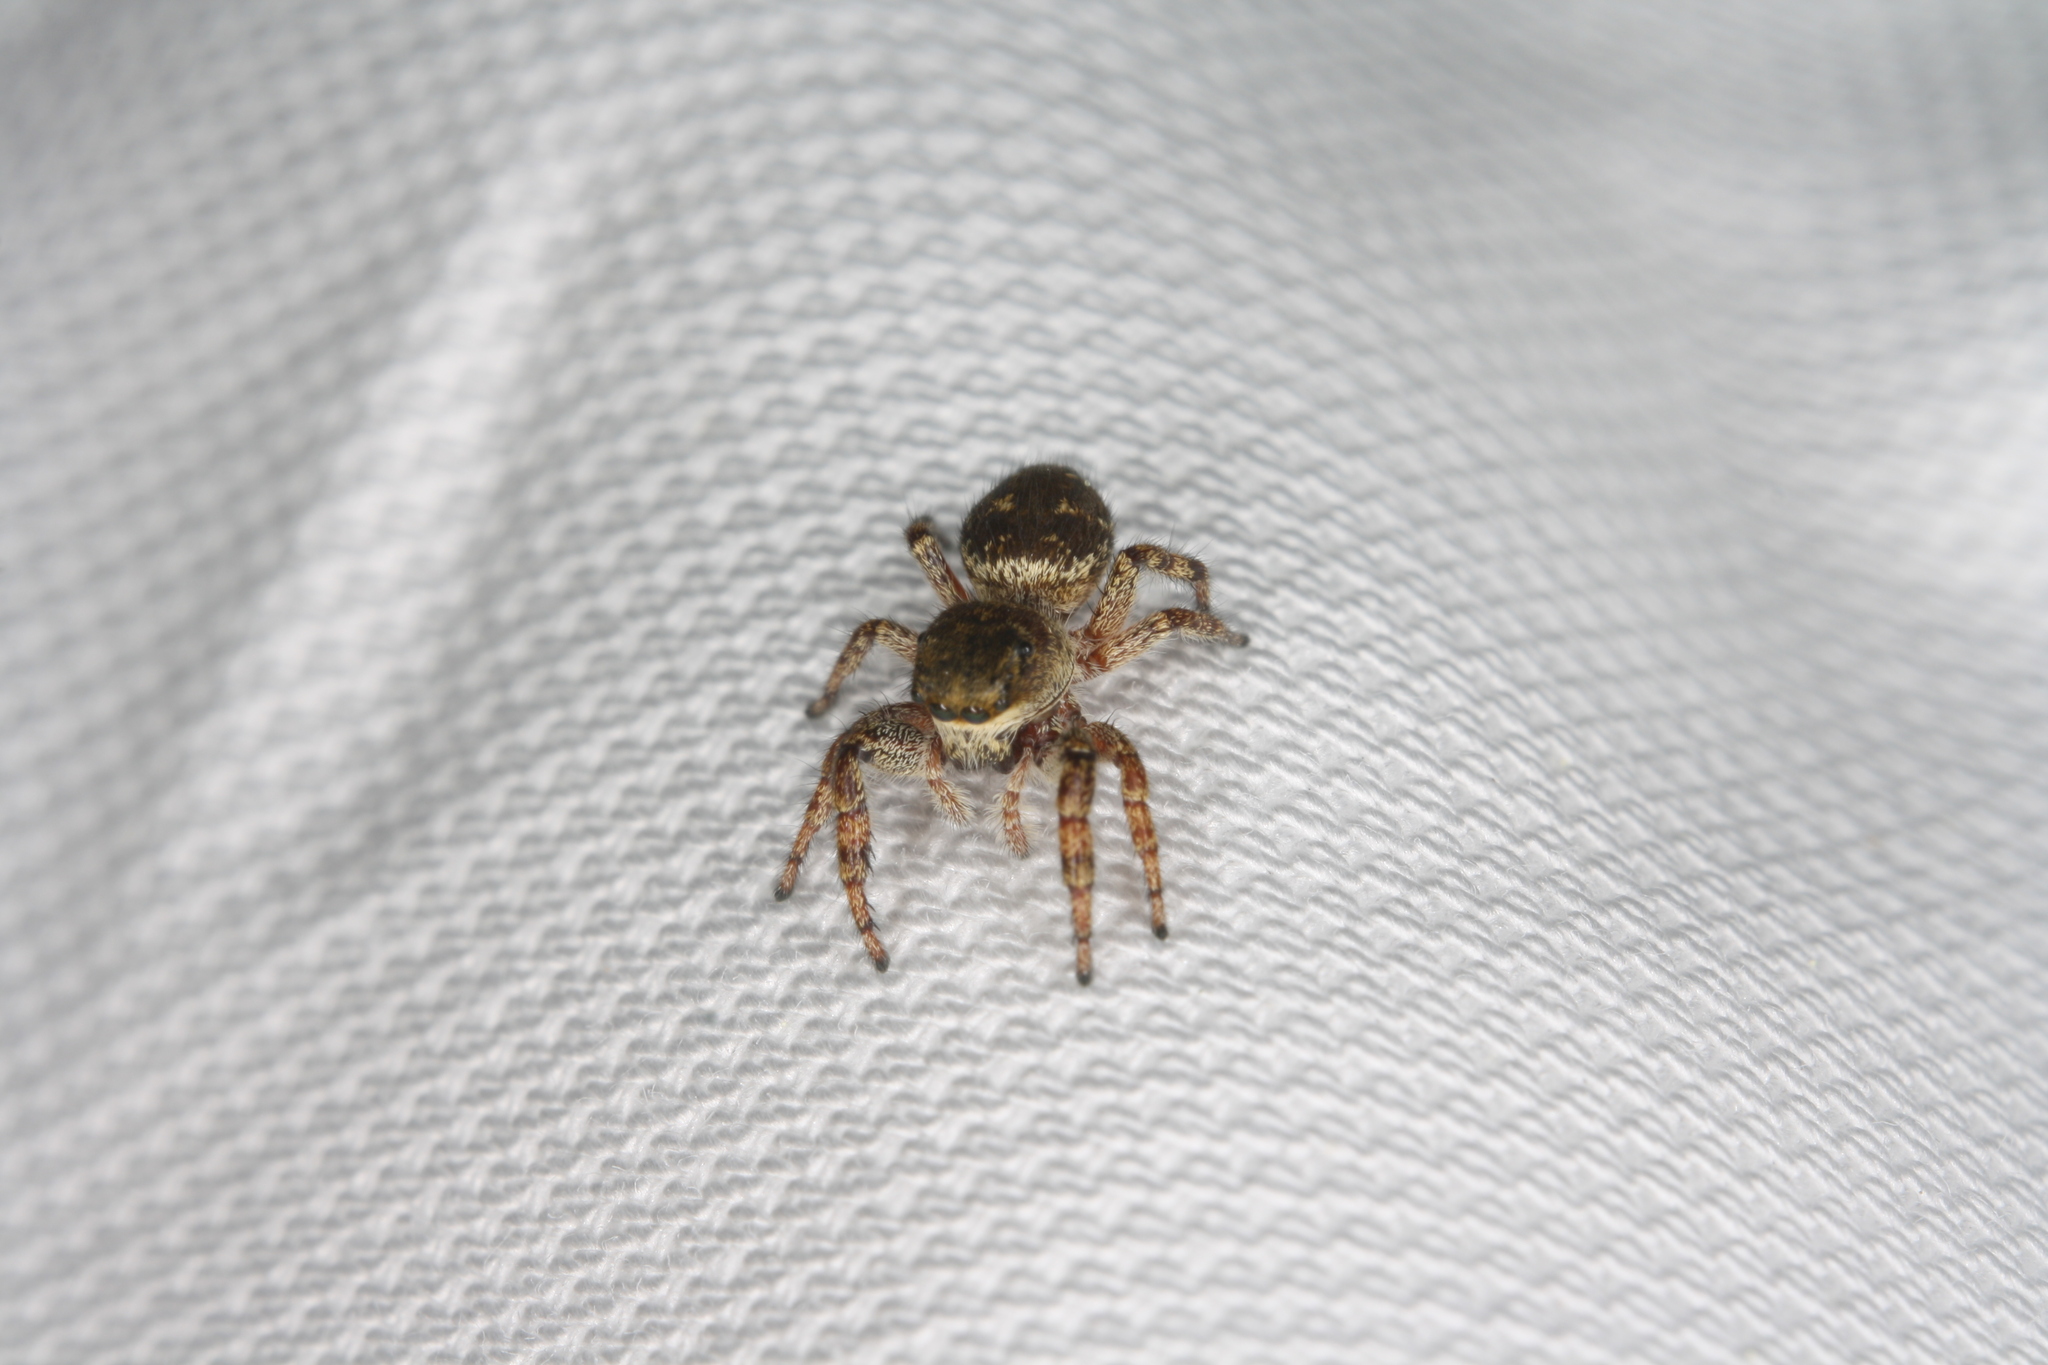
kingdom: Animalia
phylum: Arthropoda
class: Arachnida
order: Araneae
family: Salticidae
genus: Dendryphantes
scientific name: Dendryphantes rudis
